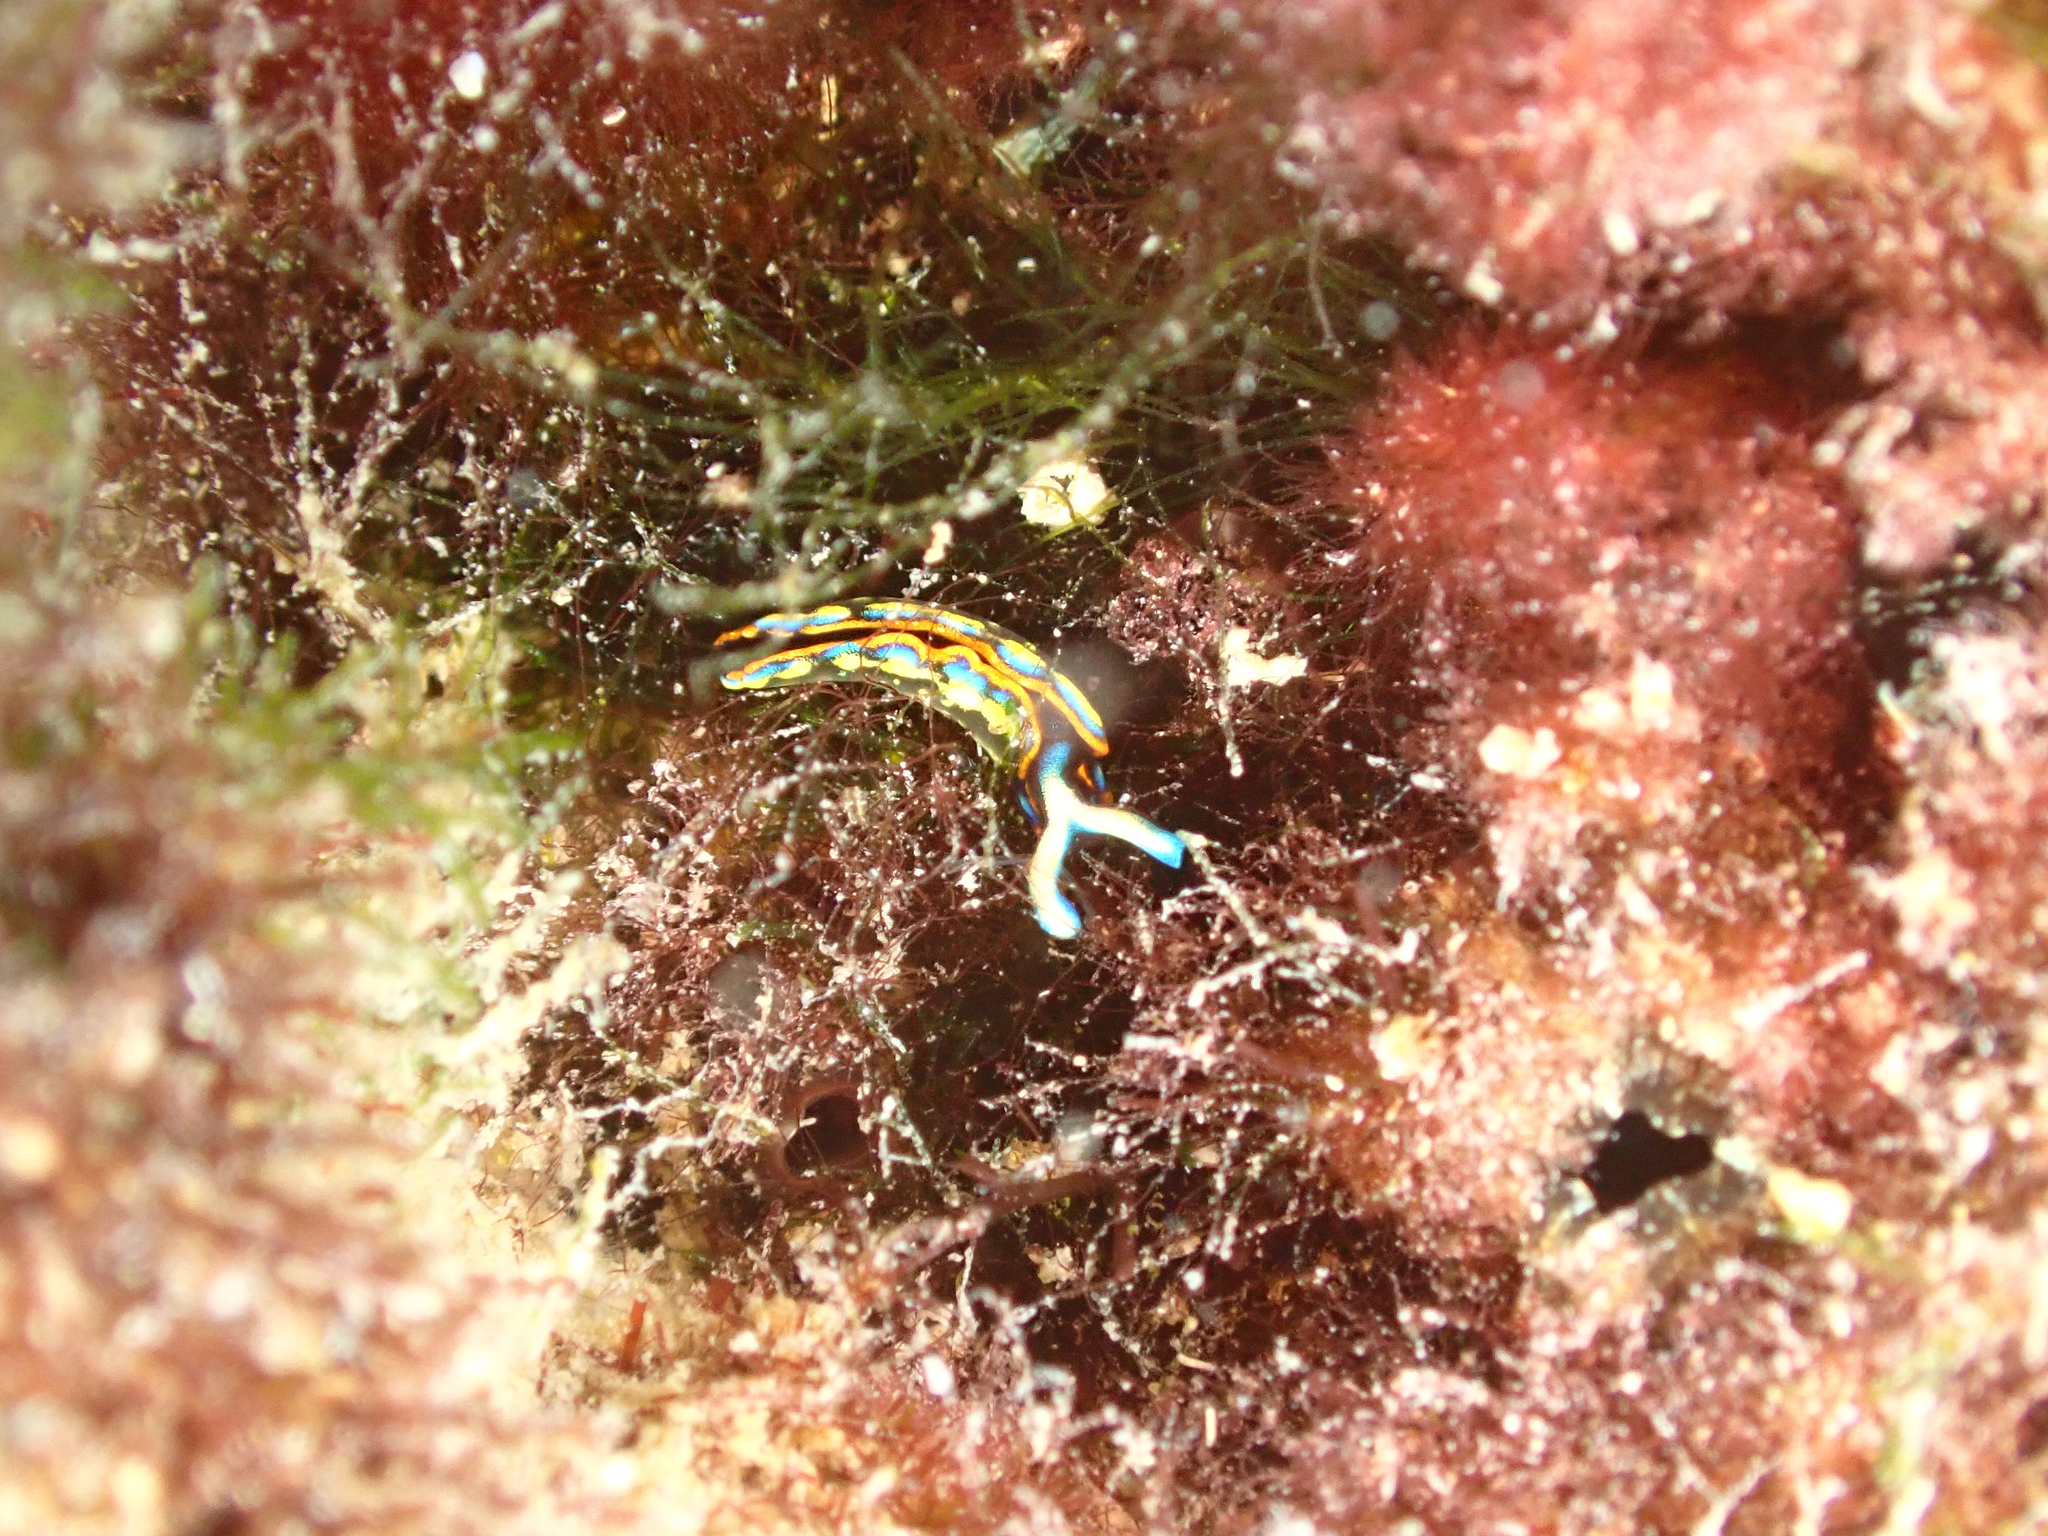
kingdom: Animalia
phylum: Mollusca
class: Gastropoda
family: Plakobranchidae
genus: Thuridilla
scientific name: Thuridilla hopei
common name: Splendid elysia
